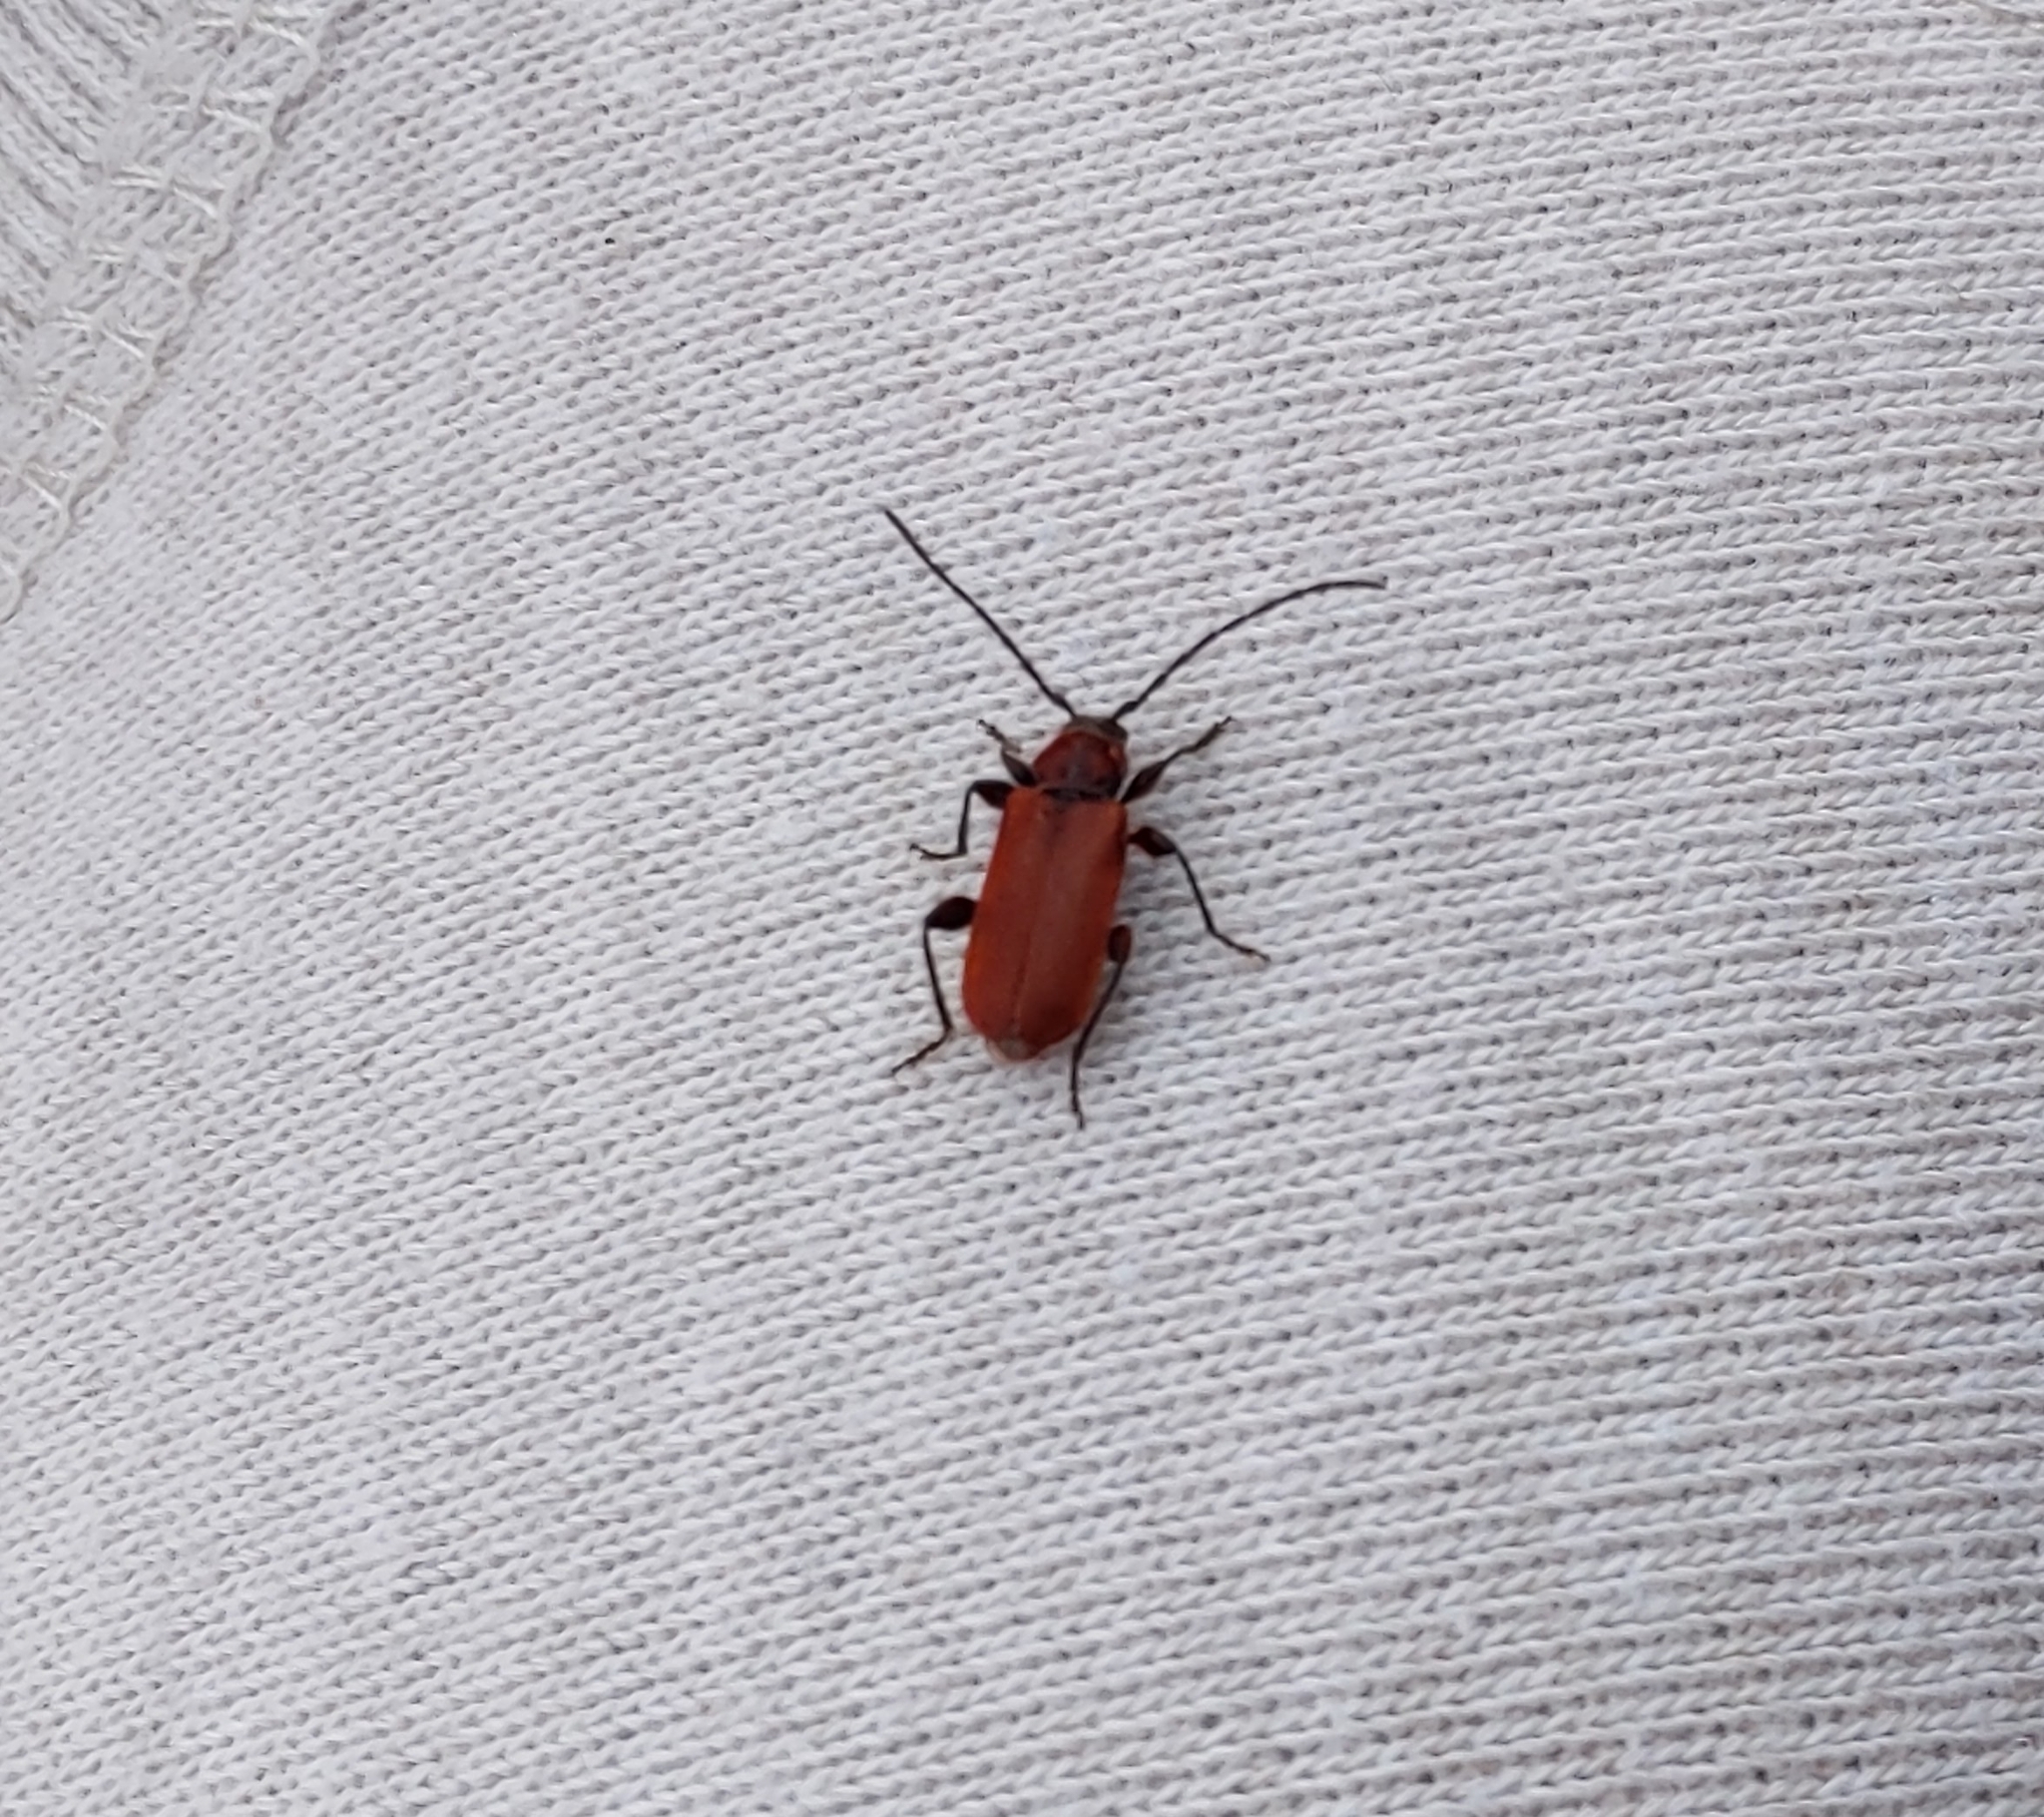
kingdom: Animalia
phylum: Arthropoda
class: Insecta
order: Coleoptera
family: Cerambycidae
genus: Pyrrhidium
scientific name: Pyrrhidium sanguineum
